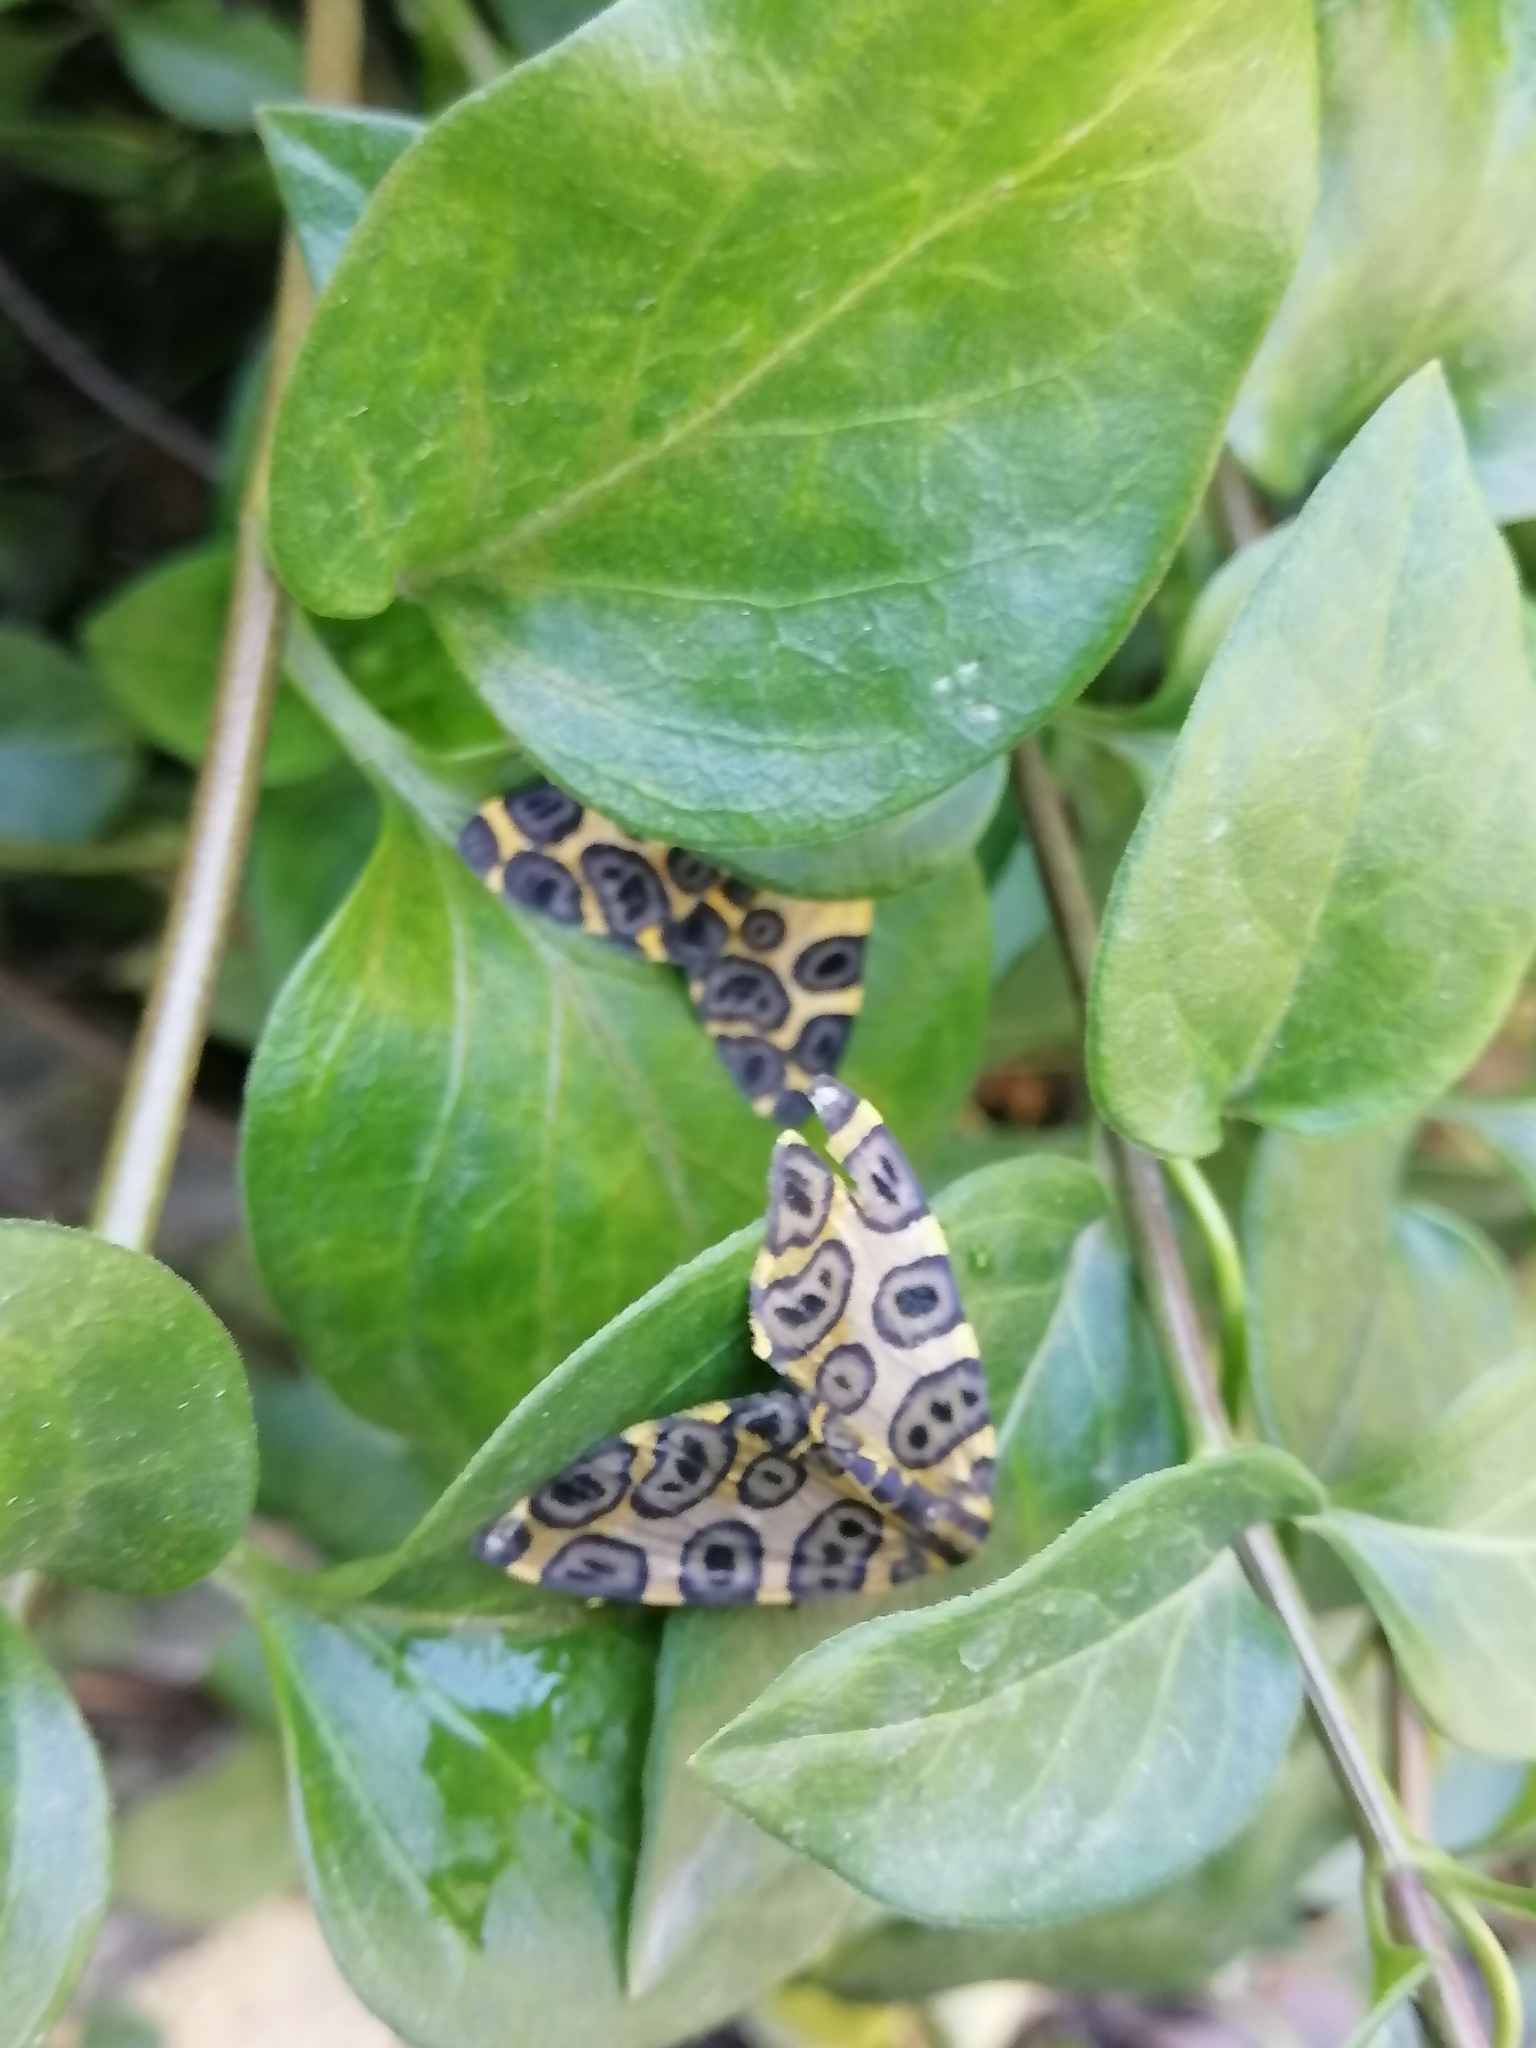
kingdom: Animalia
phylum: Arthropoda
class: Insecta
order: Lepidoptera
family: Geometridae
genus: Pantherodes
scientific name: Pantherodes unciaria
